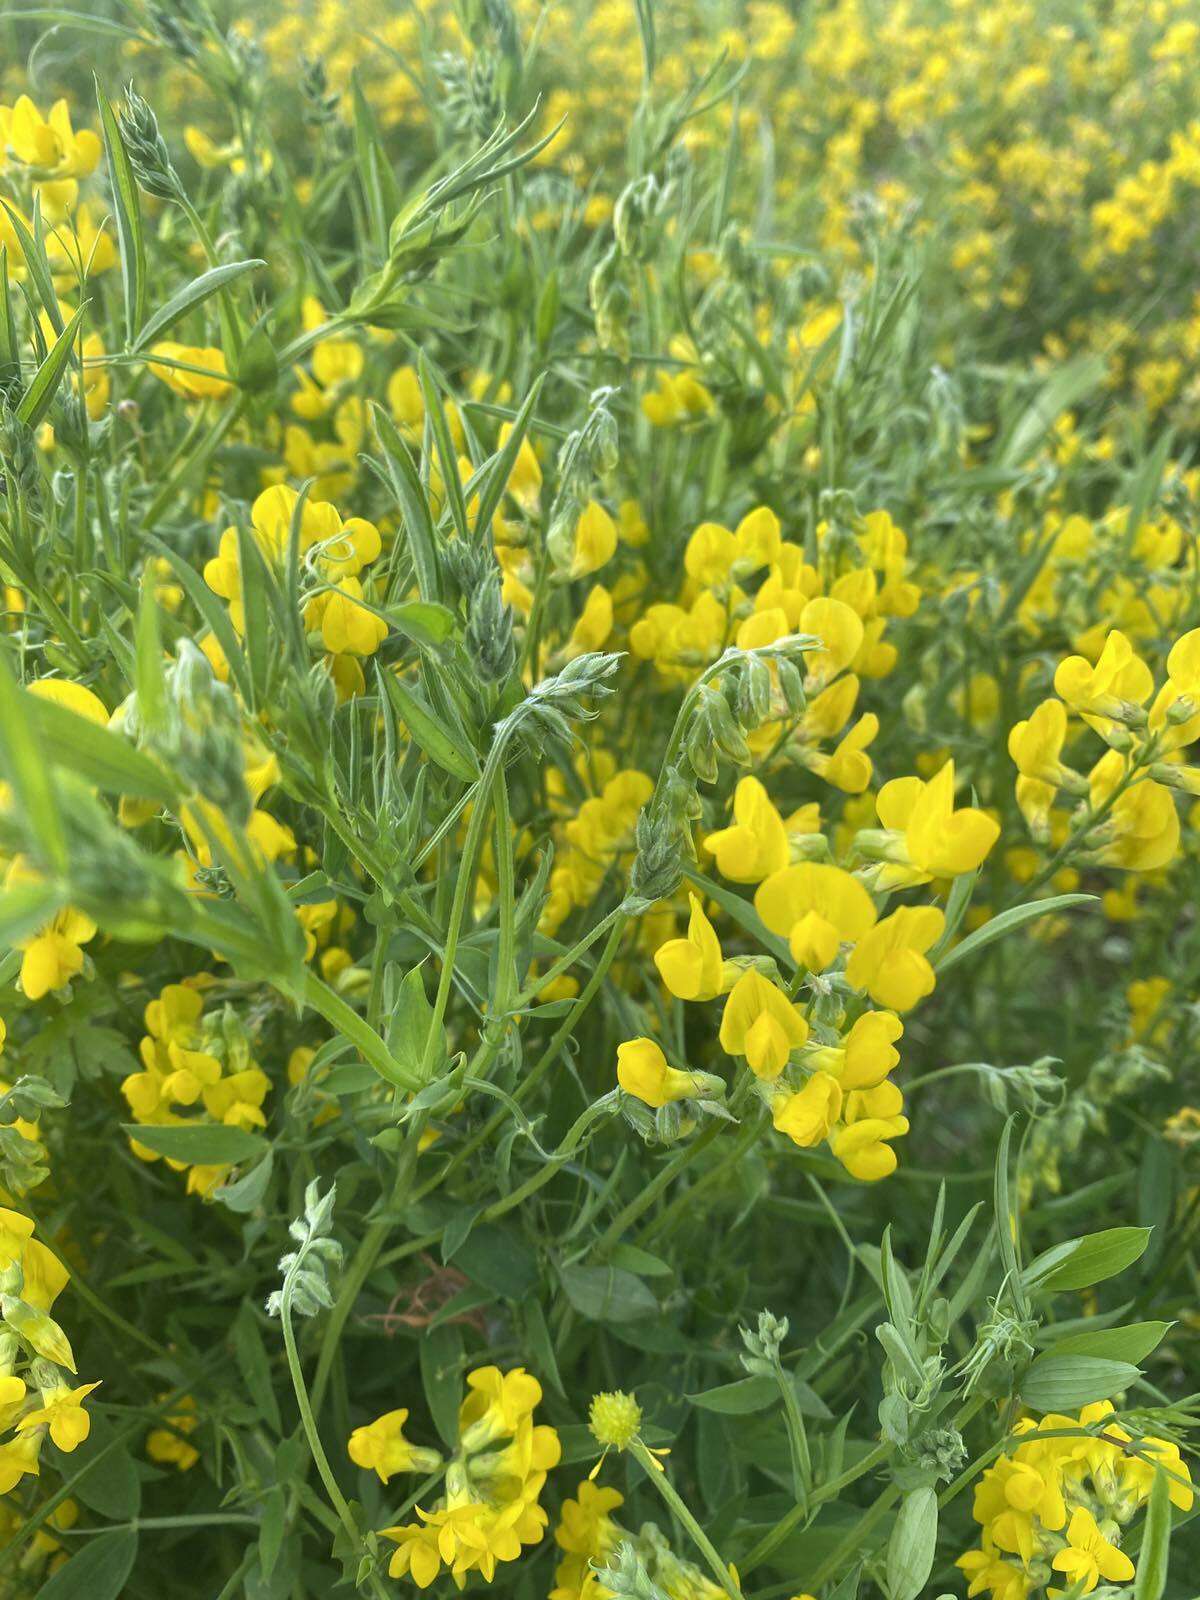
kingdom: Plantae
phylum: Tracheophyta
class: Magnoliopsida
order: Fabales
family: Fabaceae
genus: Lathyrus
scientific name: Lathyrus pratensis
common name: Meadow vetchling
